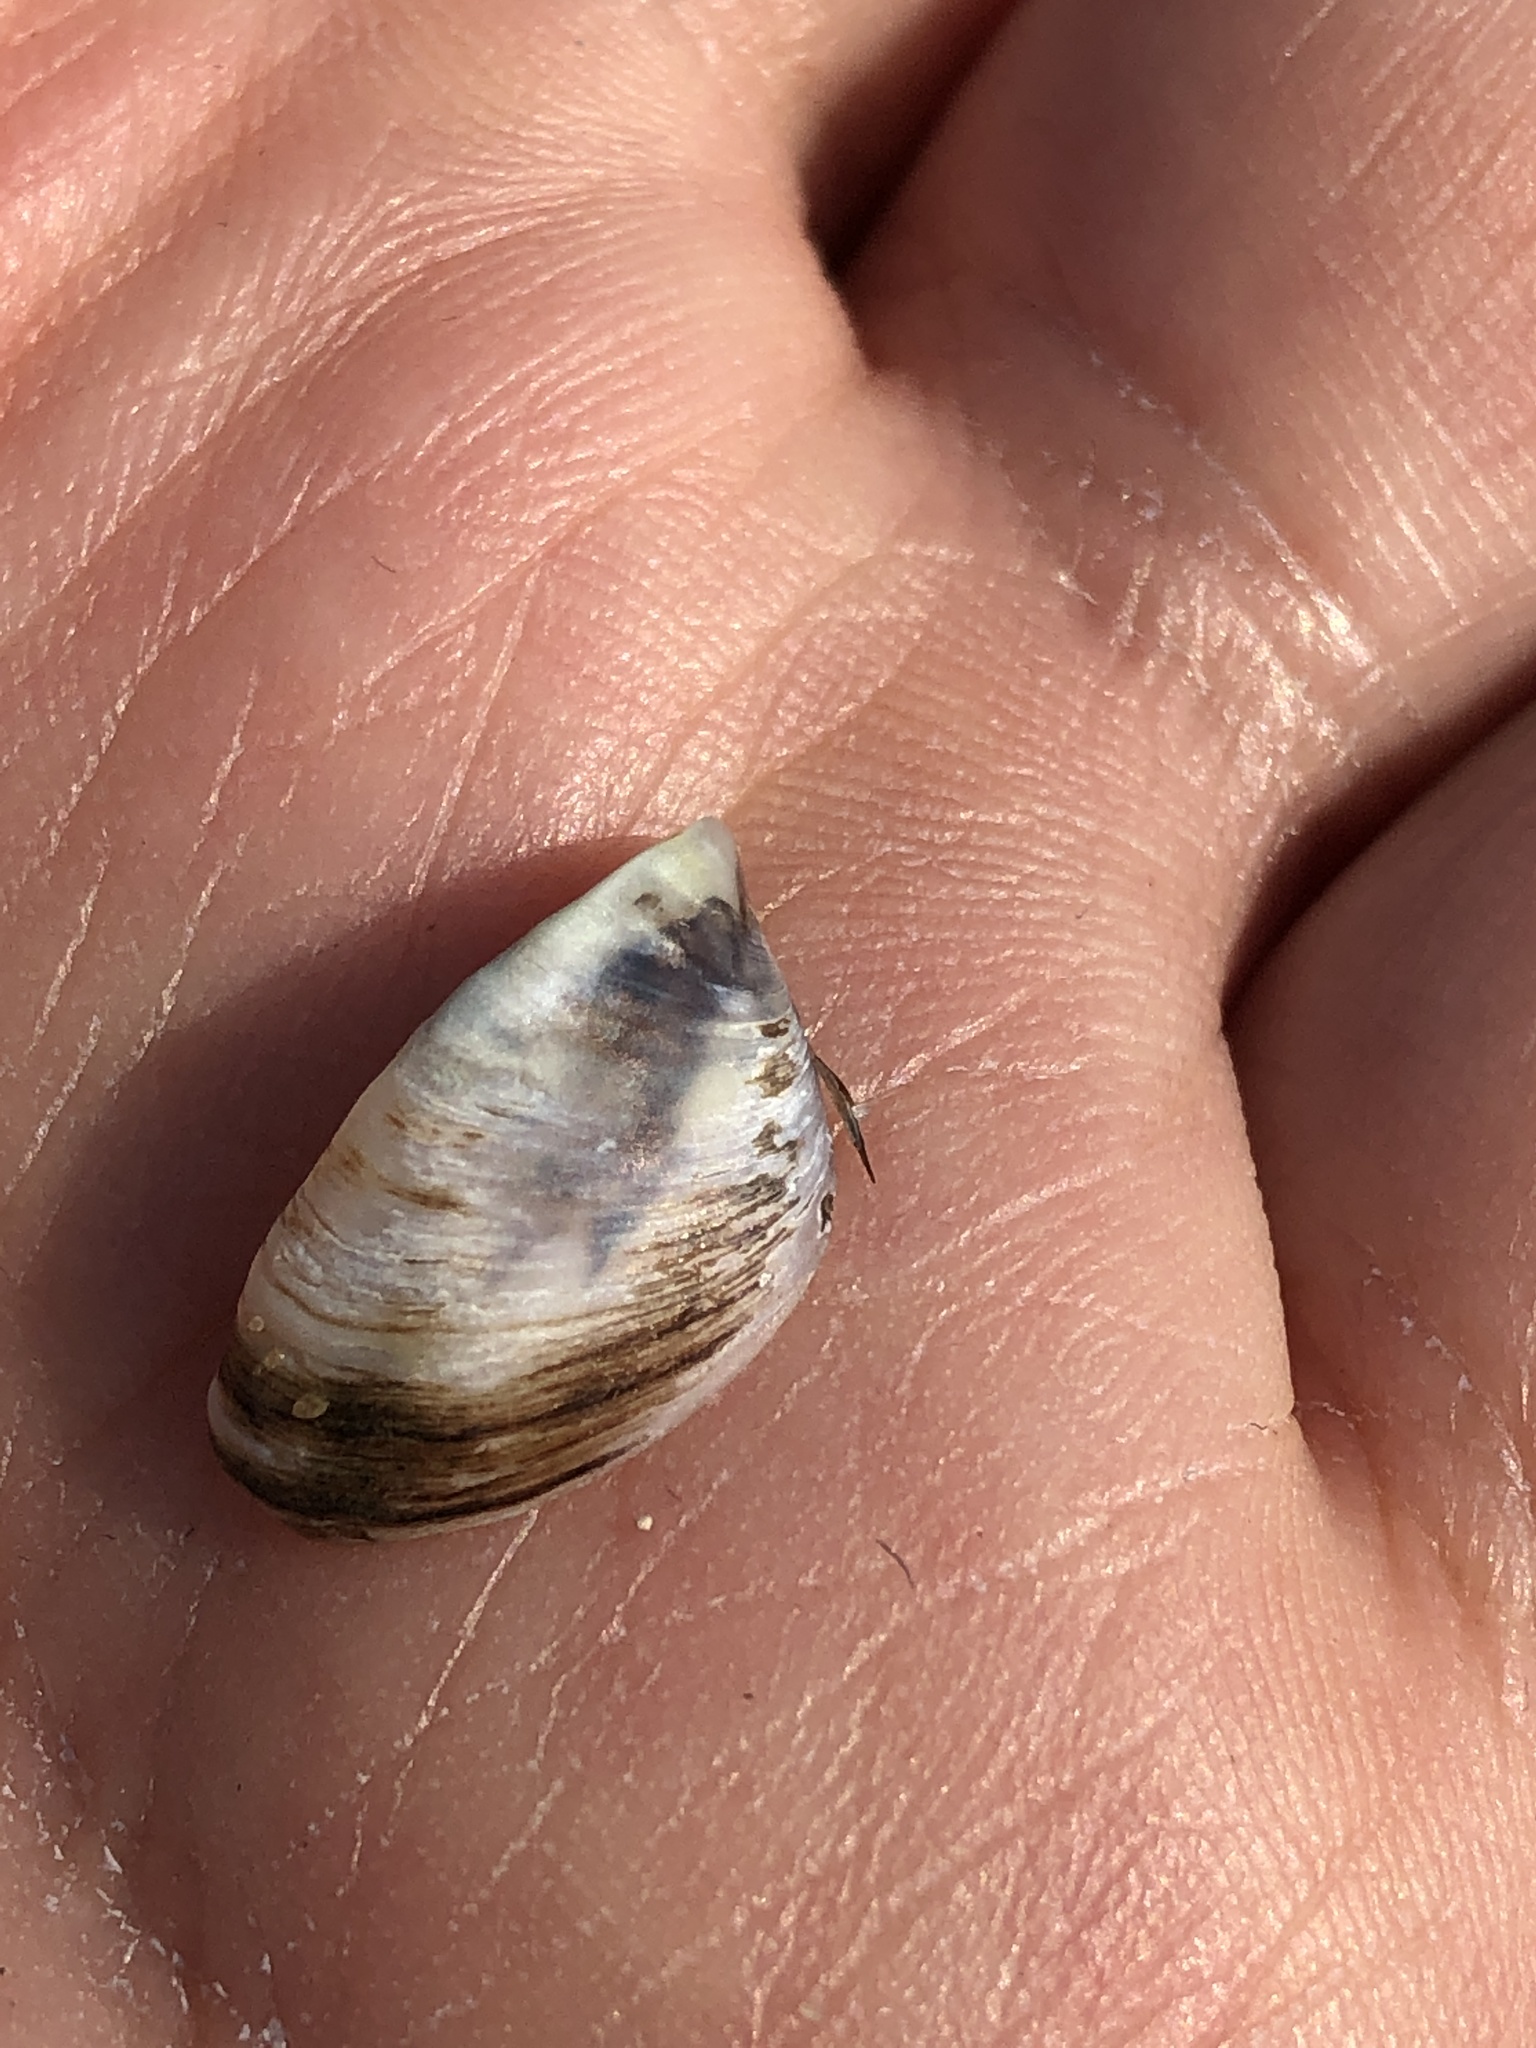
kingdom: Animalia
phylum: Mollusca
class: Bivalvia
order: Myida
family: Dreissenidae
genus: Dreissena
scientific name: Dreissena polymorpha
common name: Zebra mussel
